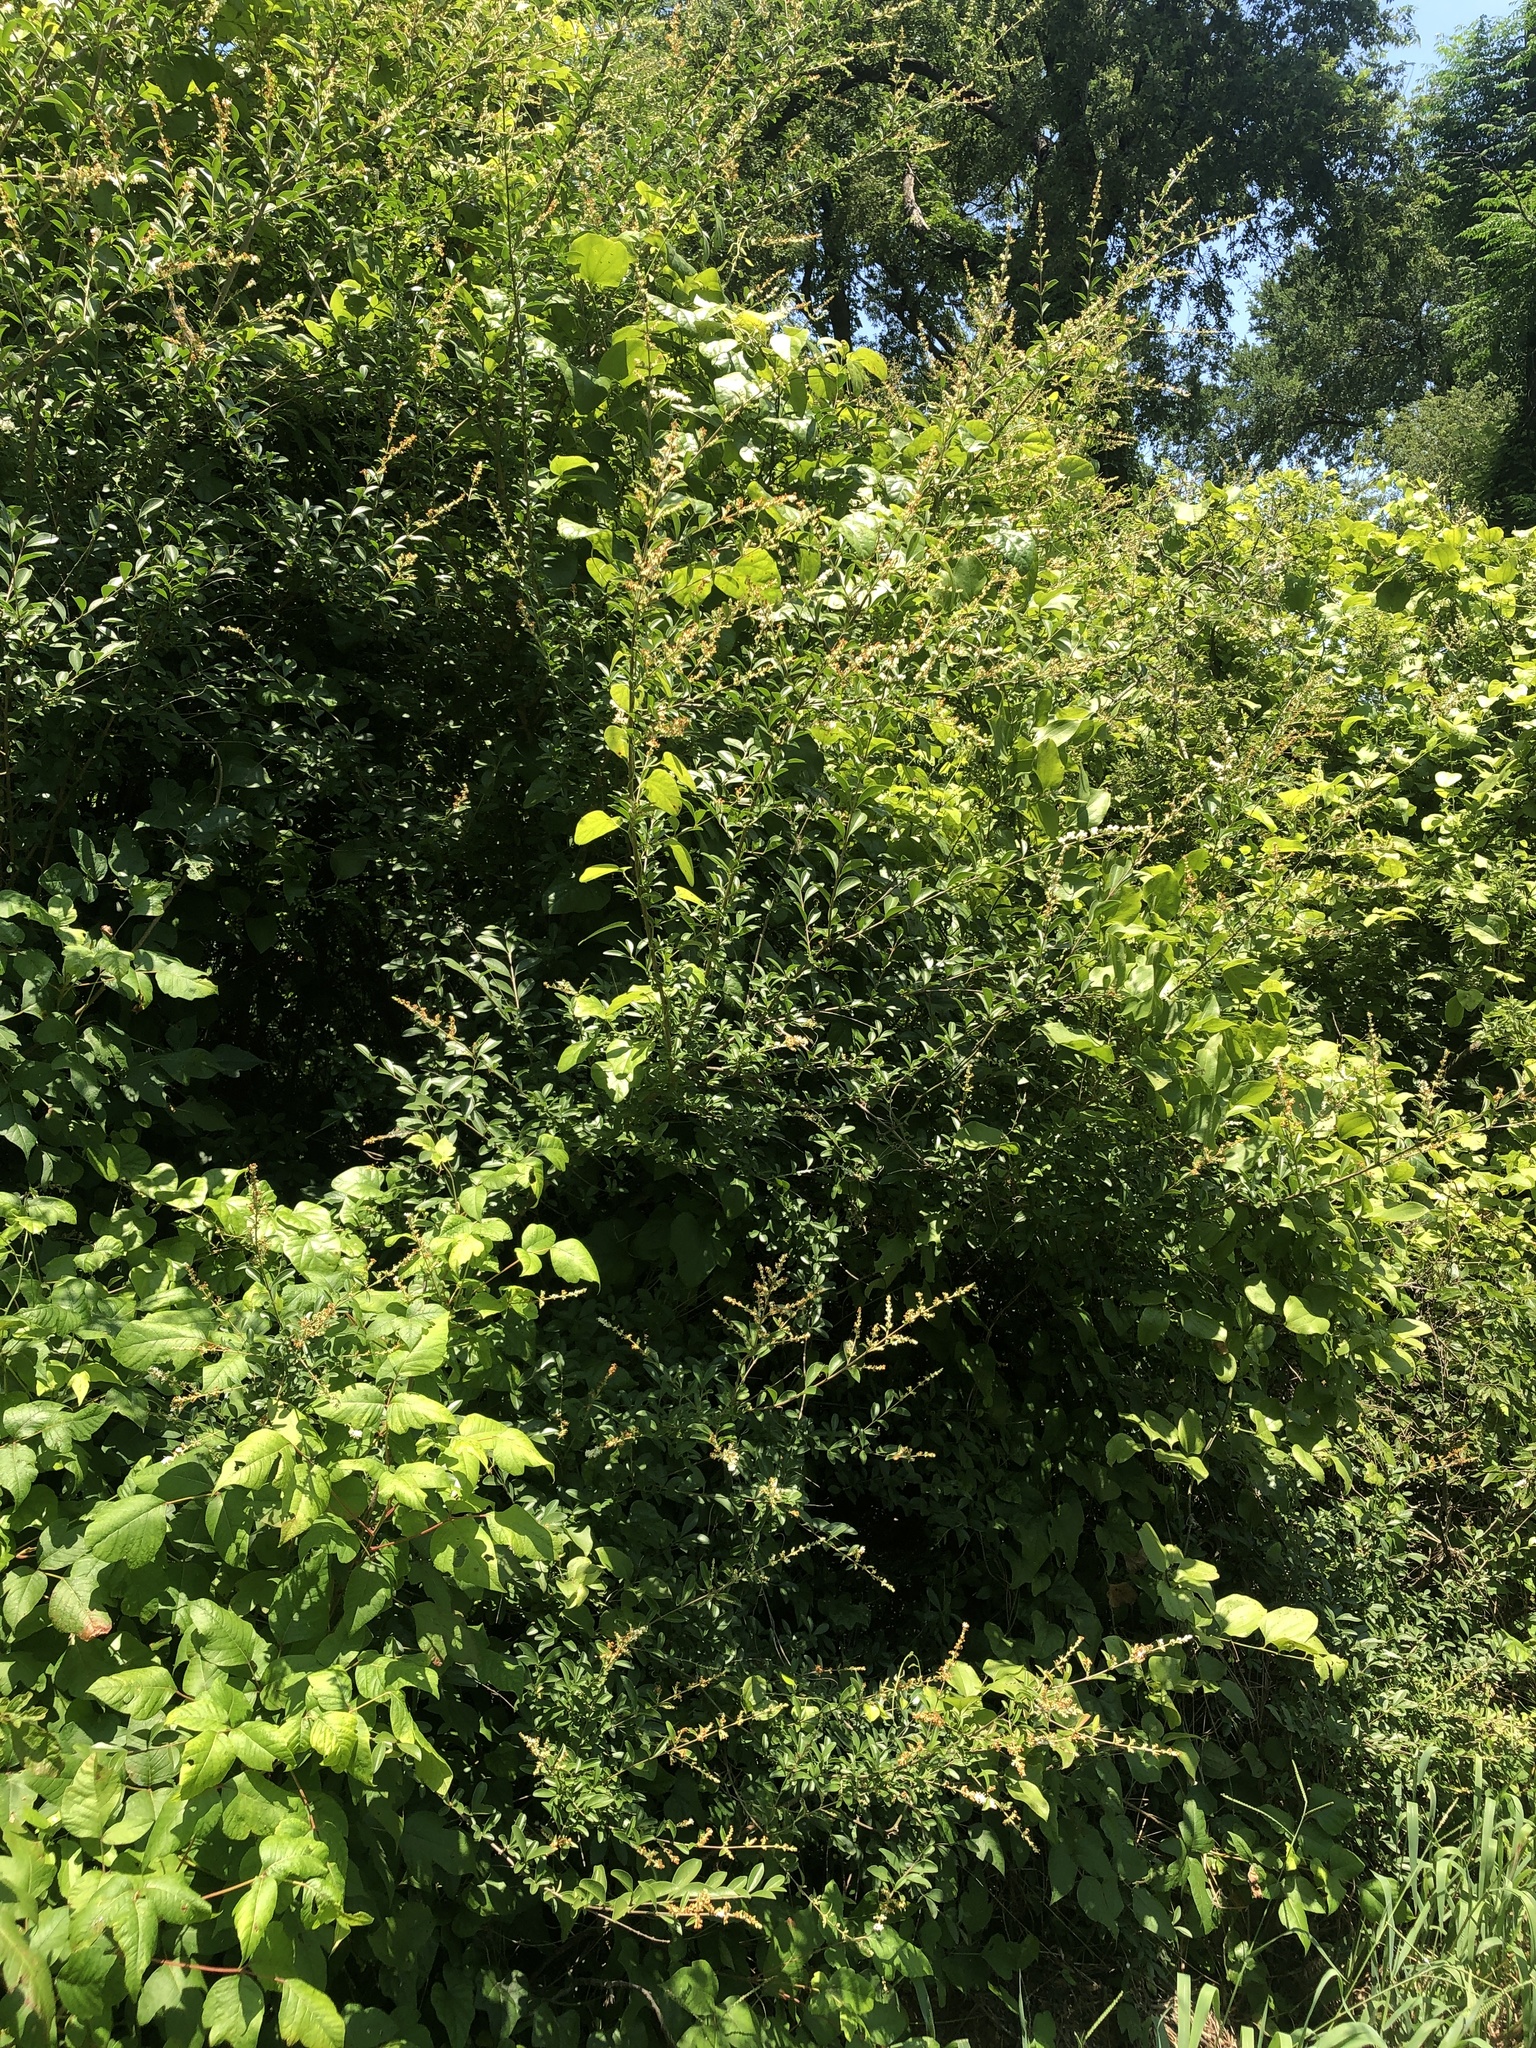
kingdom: Plantae
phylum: Tracheophyta
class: Magnoliopsida
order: Lamiales
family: Oleaceae
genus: Ligustrum
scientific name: Ligustrum quihoui
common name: Waxyleaf privet
